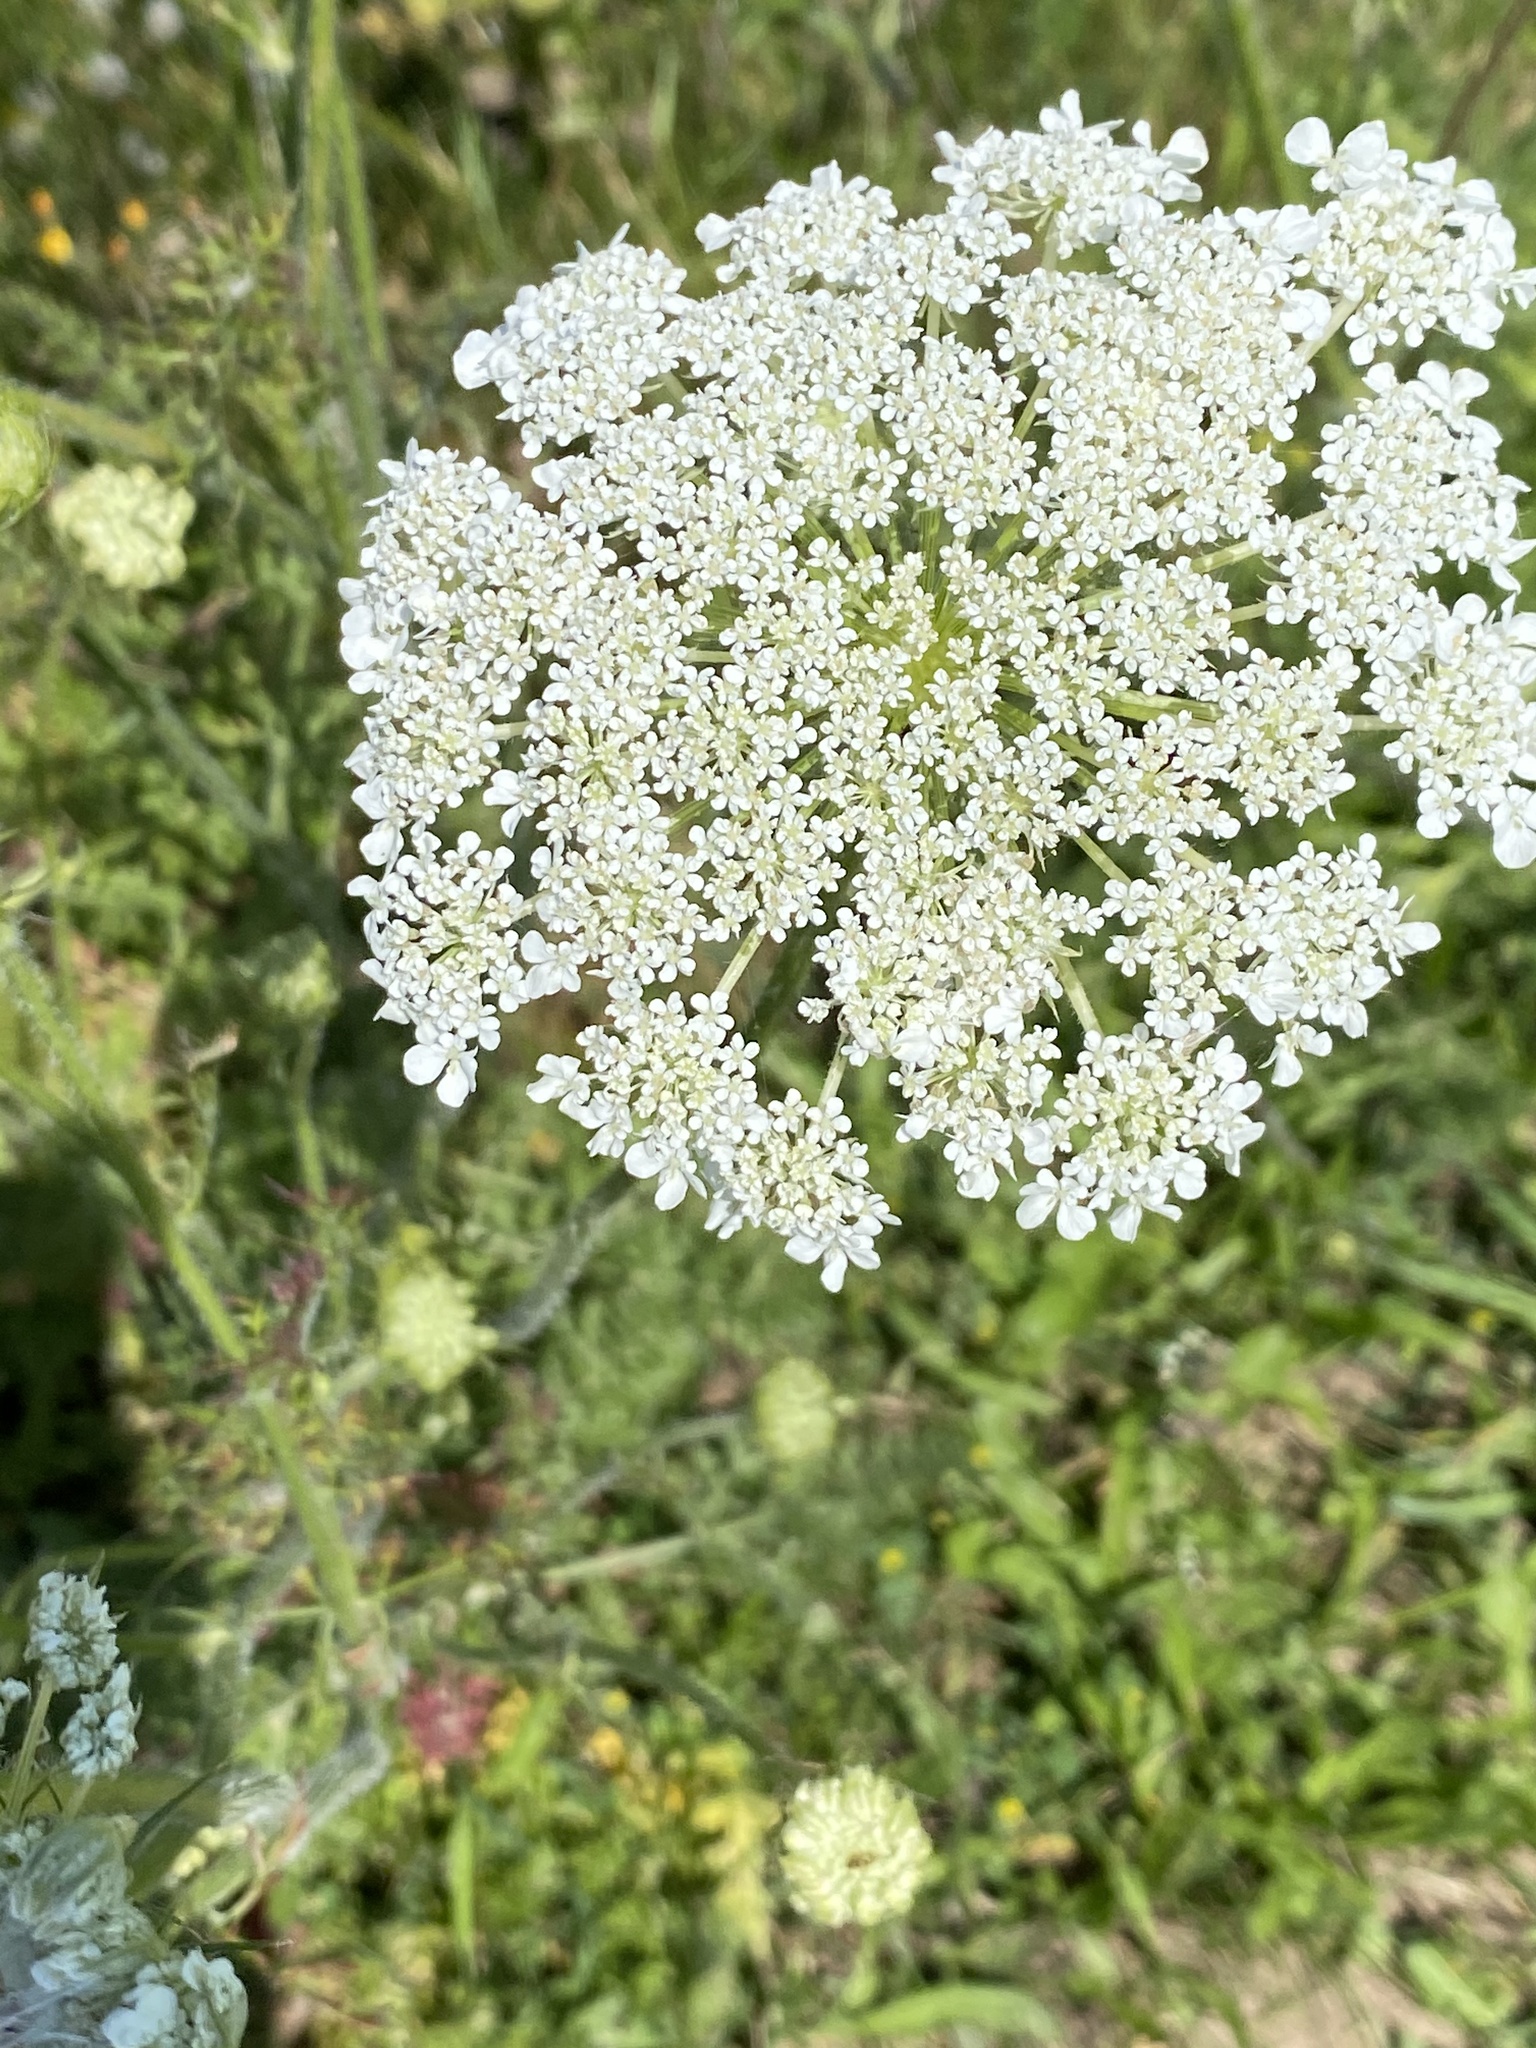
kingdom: Plantae
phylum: Tracheophyta
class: Magnoliopsida
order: Apiales
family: Apiaceae
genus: Daucus
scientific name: Daucus carota
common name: Wild carrot
